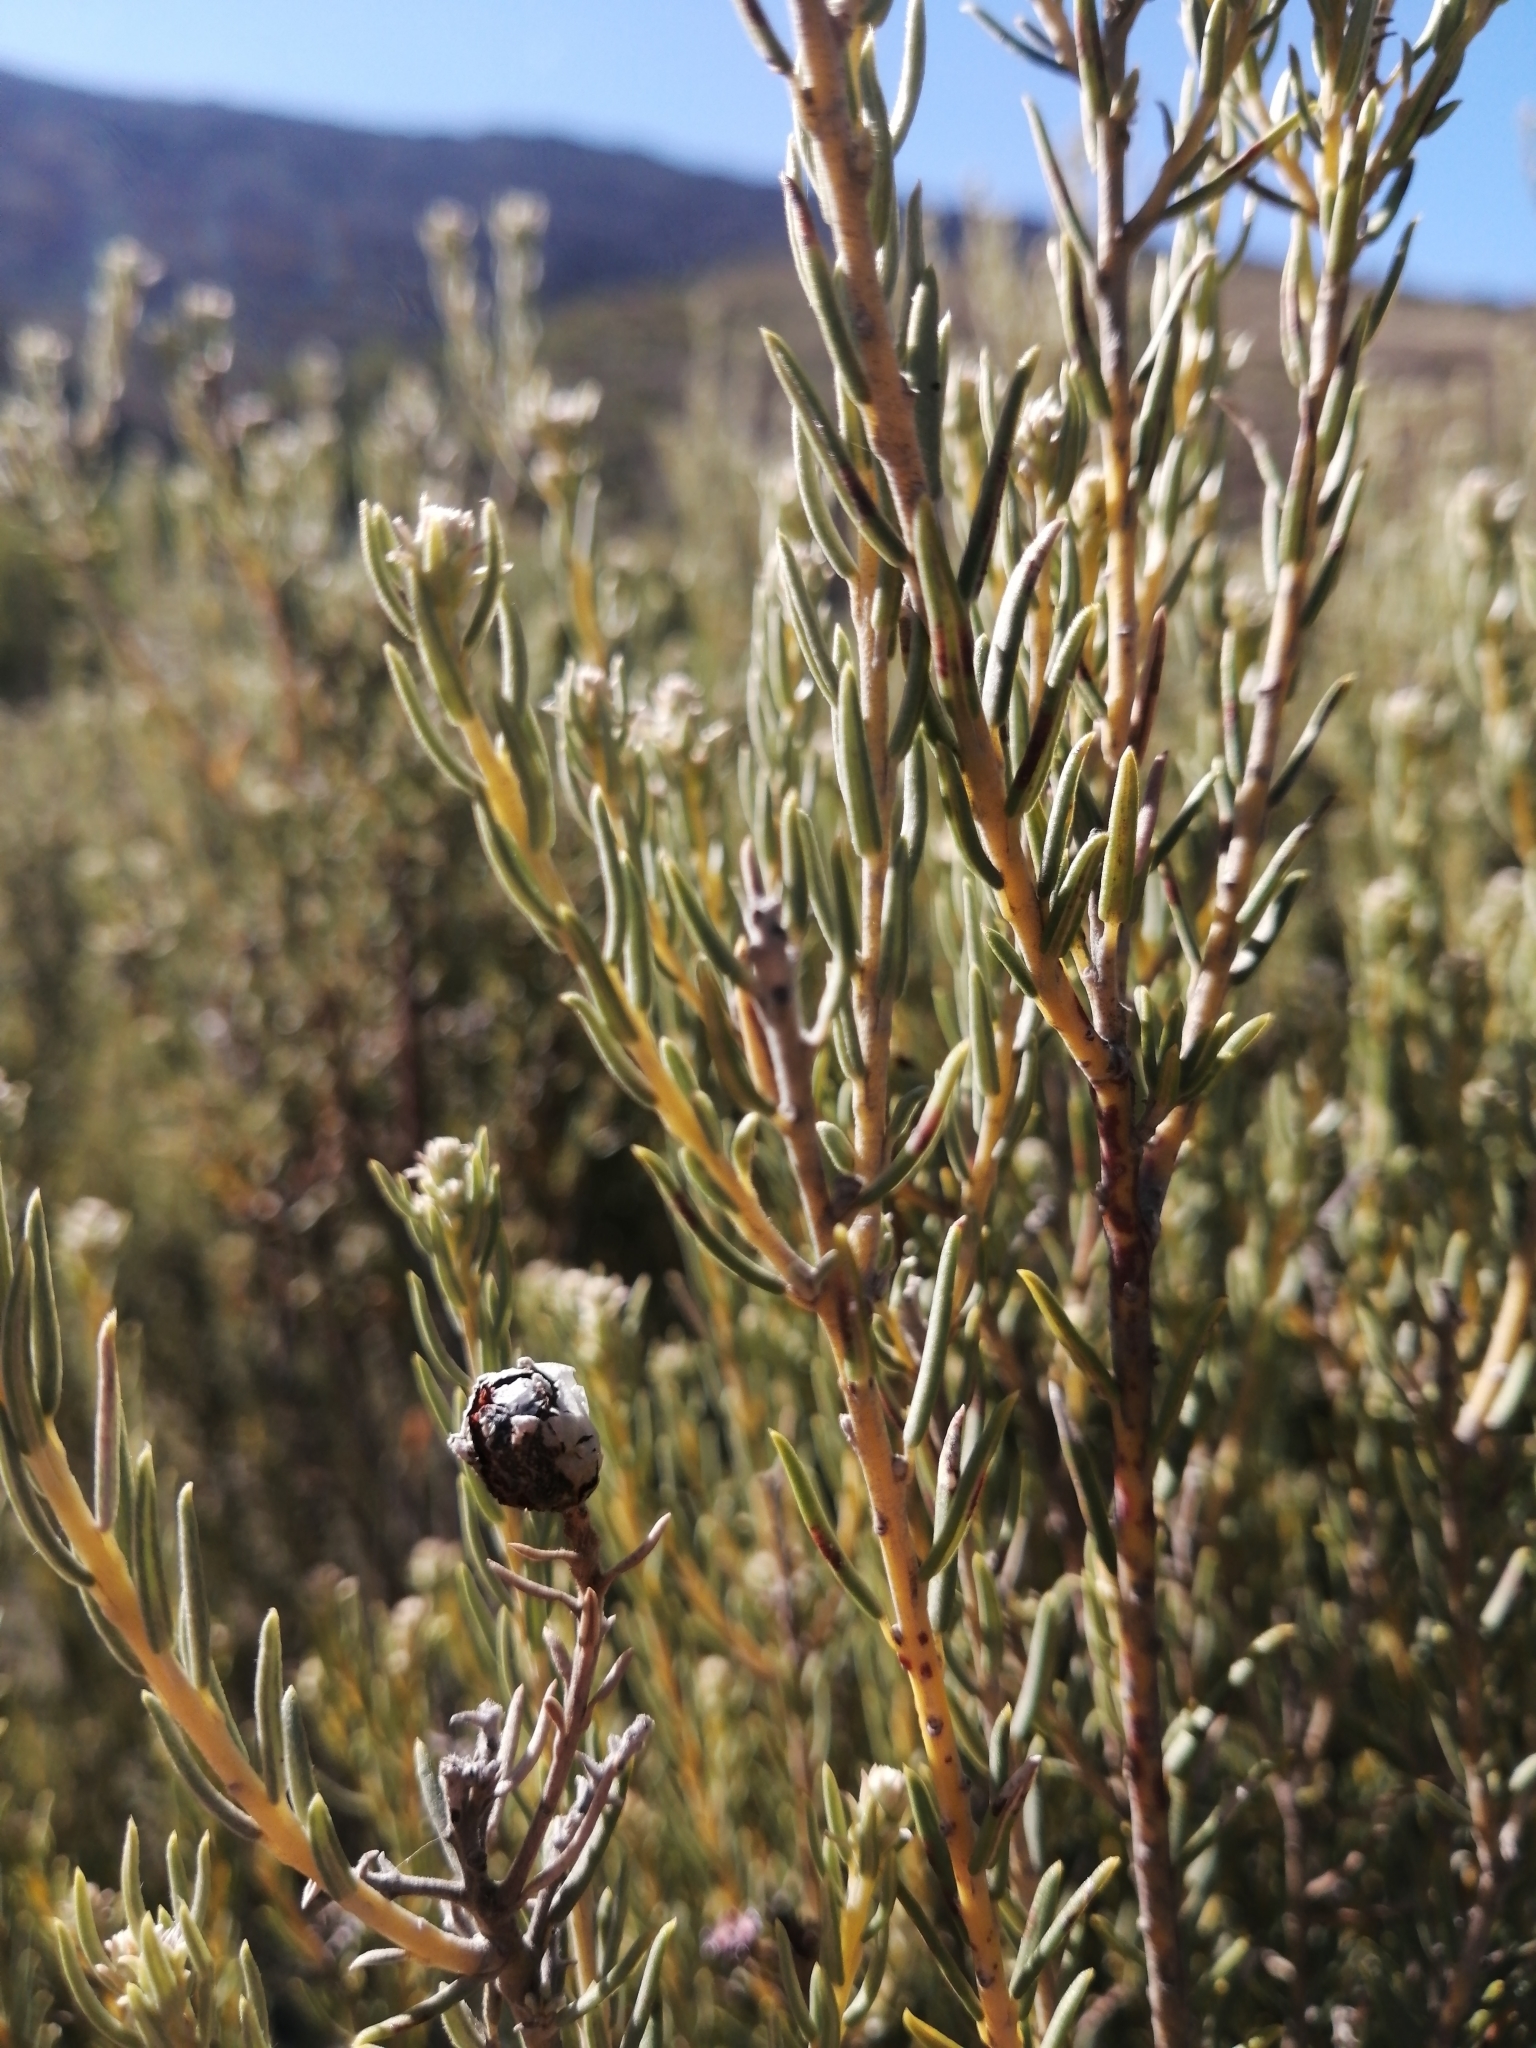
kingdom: Plantae
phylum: Tracheophyta
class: Magnoliopsida
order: Rosales
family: Rhamnaceae
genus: Phylica
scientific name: Phylica rigidifolia
